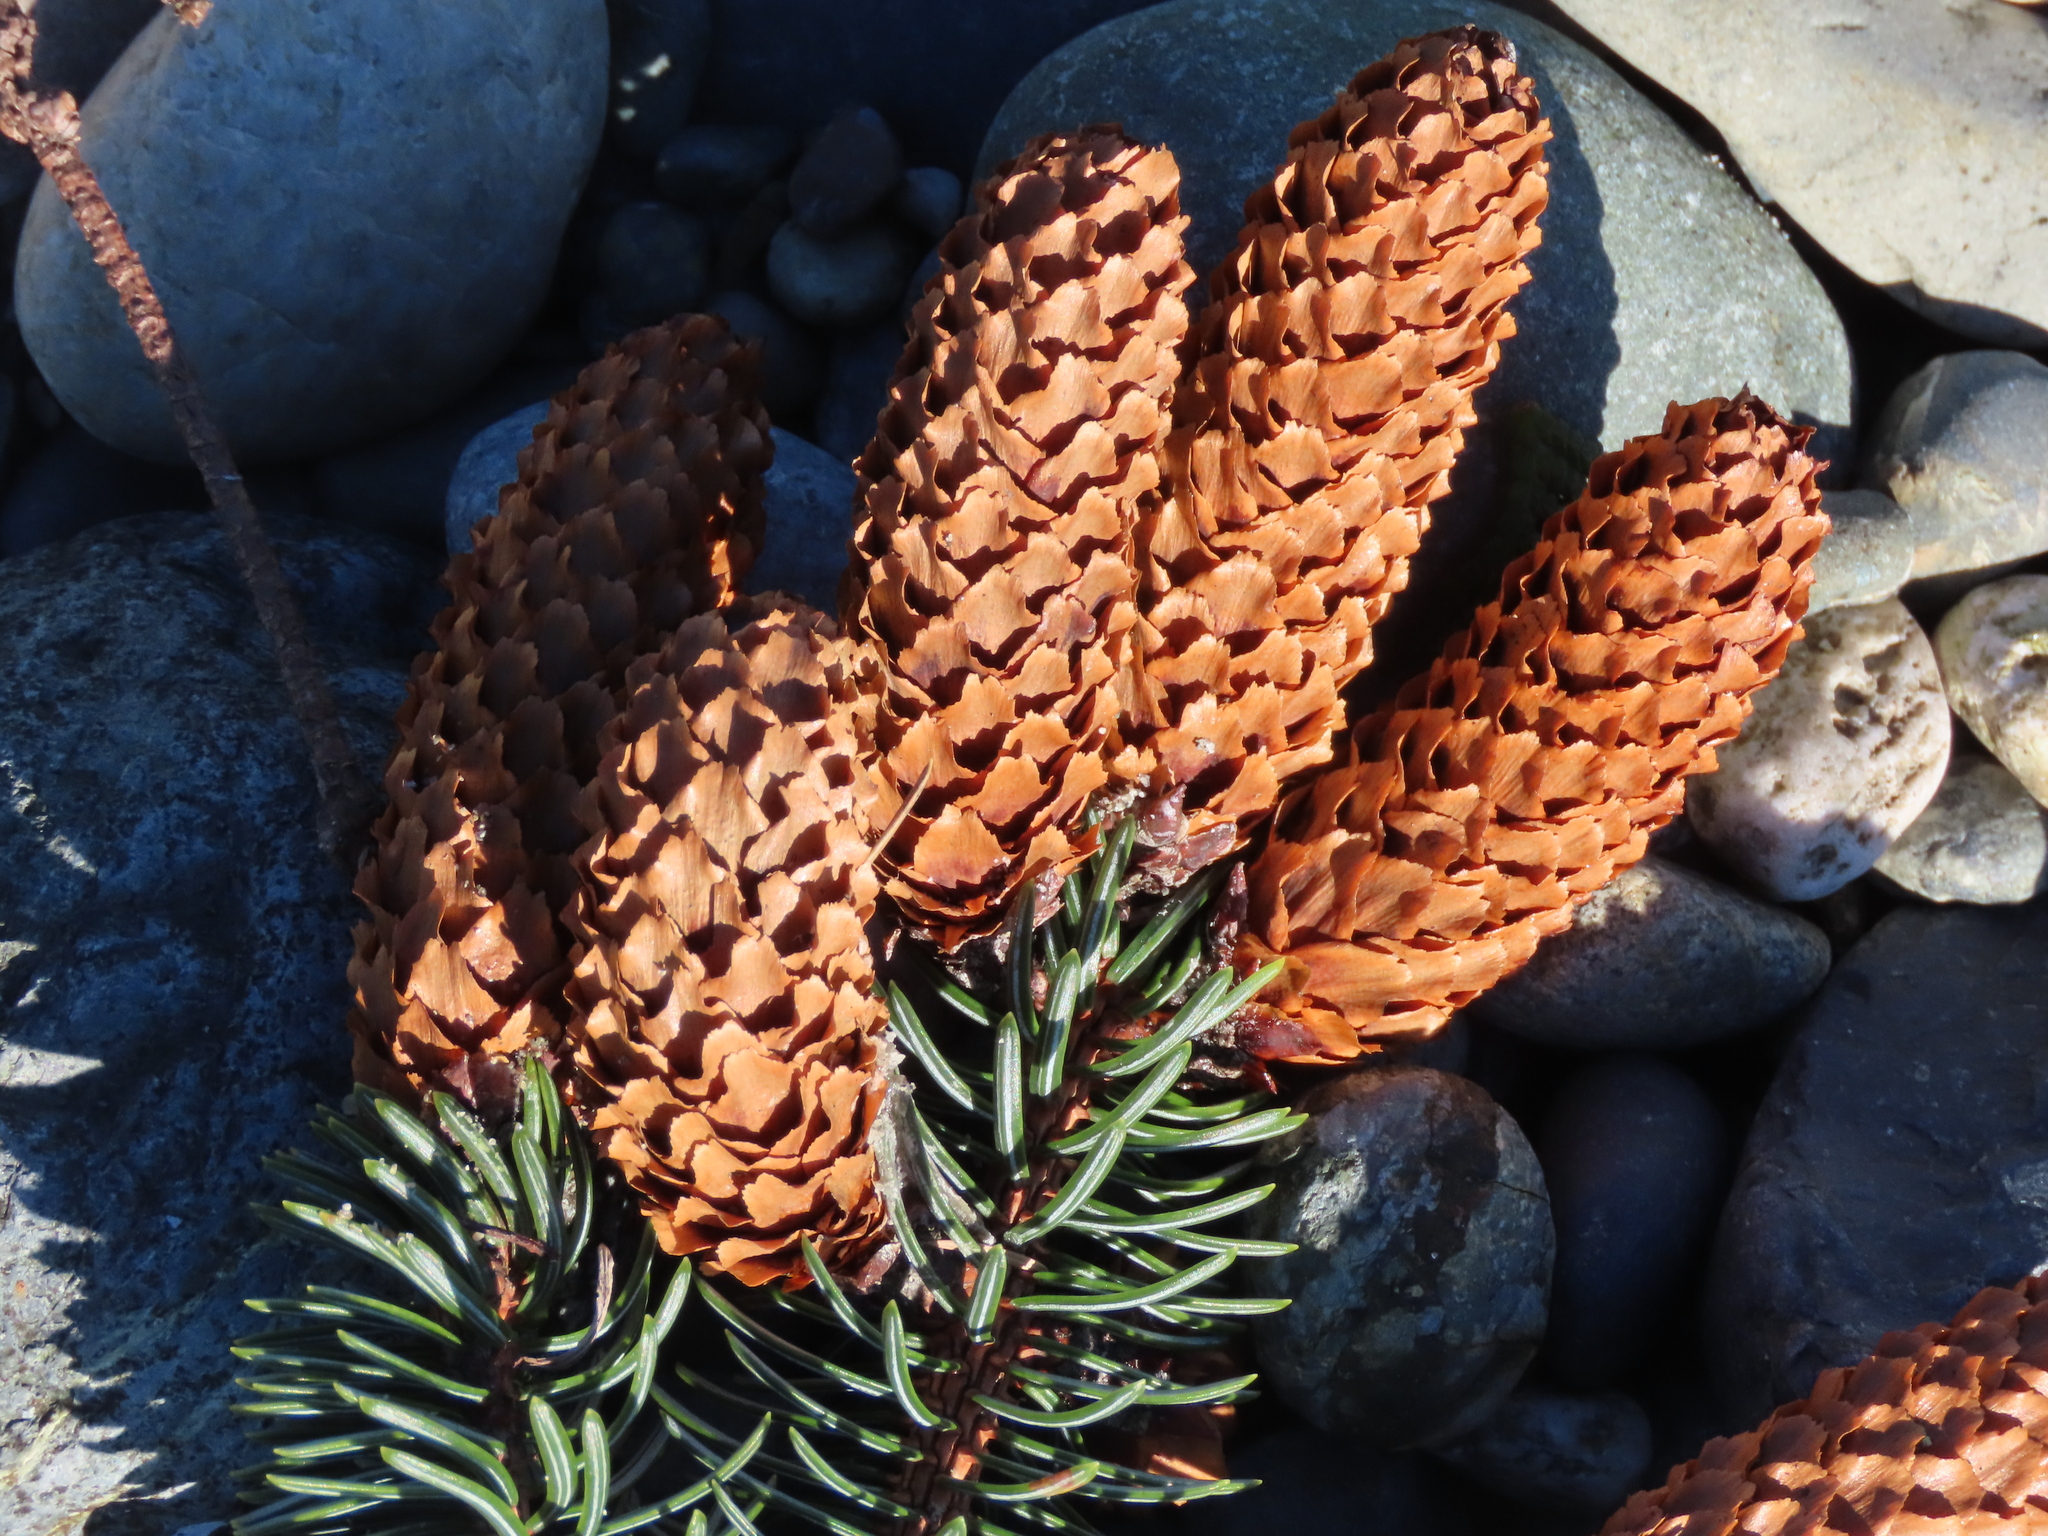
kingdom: Plantae
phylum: Tracheophyta
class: Pinopsida
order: Pinales
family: Pinaceae
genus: Picea
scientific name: Picea sitchensis
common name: Sitka spruce
